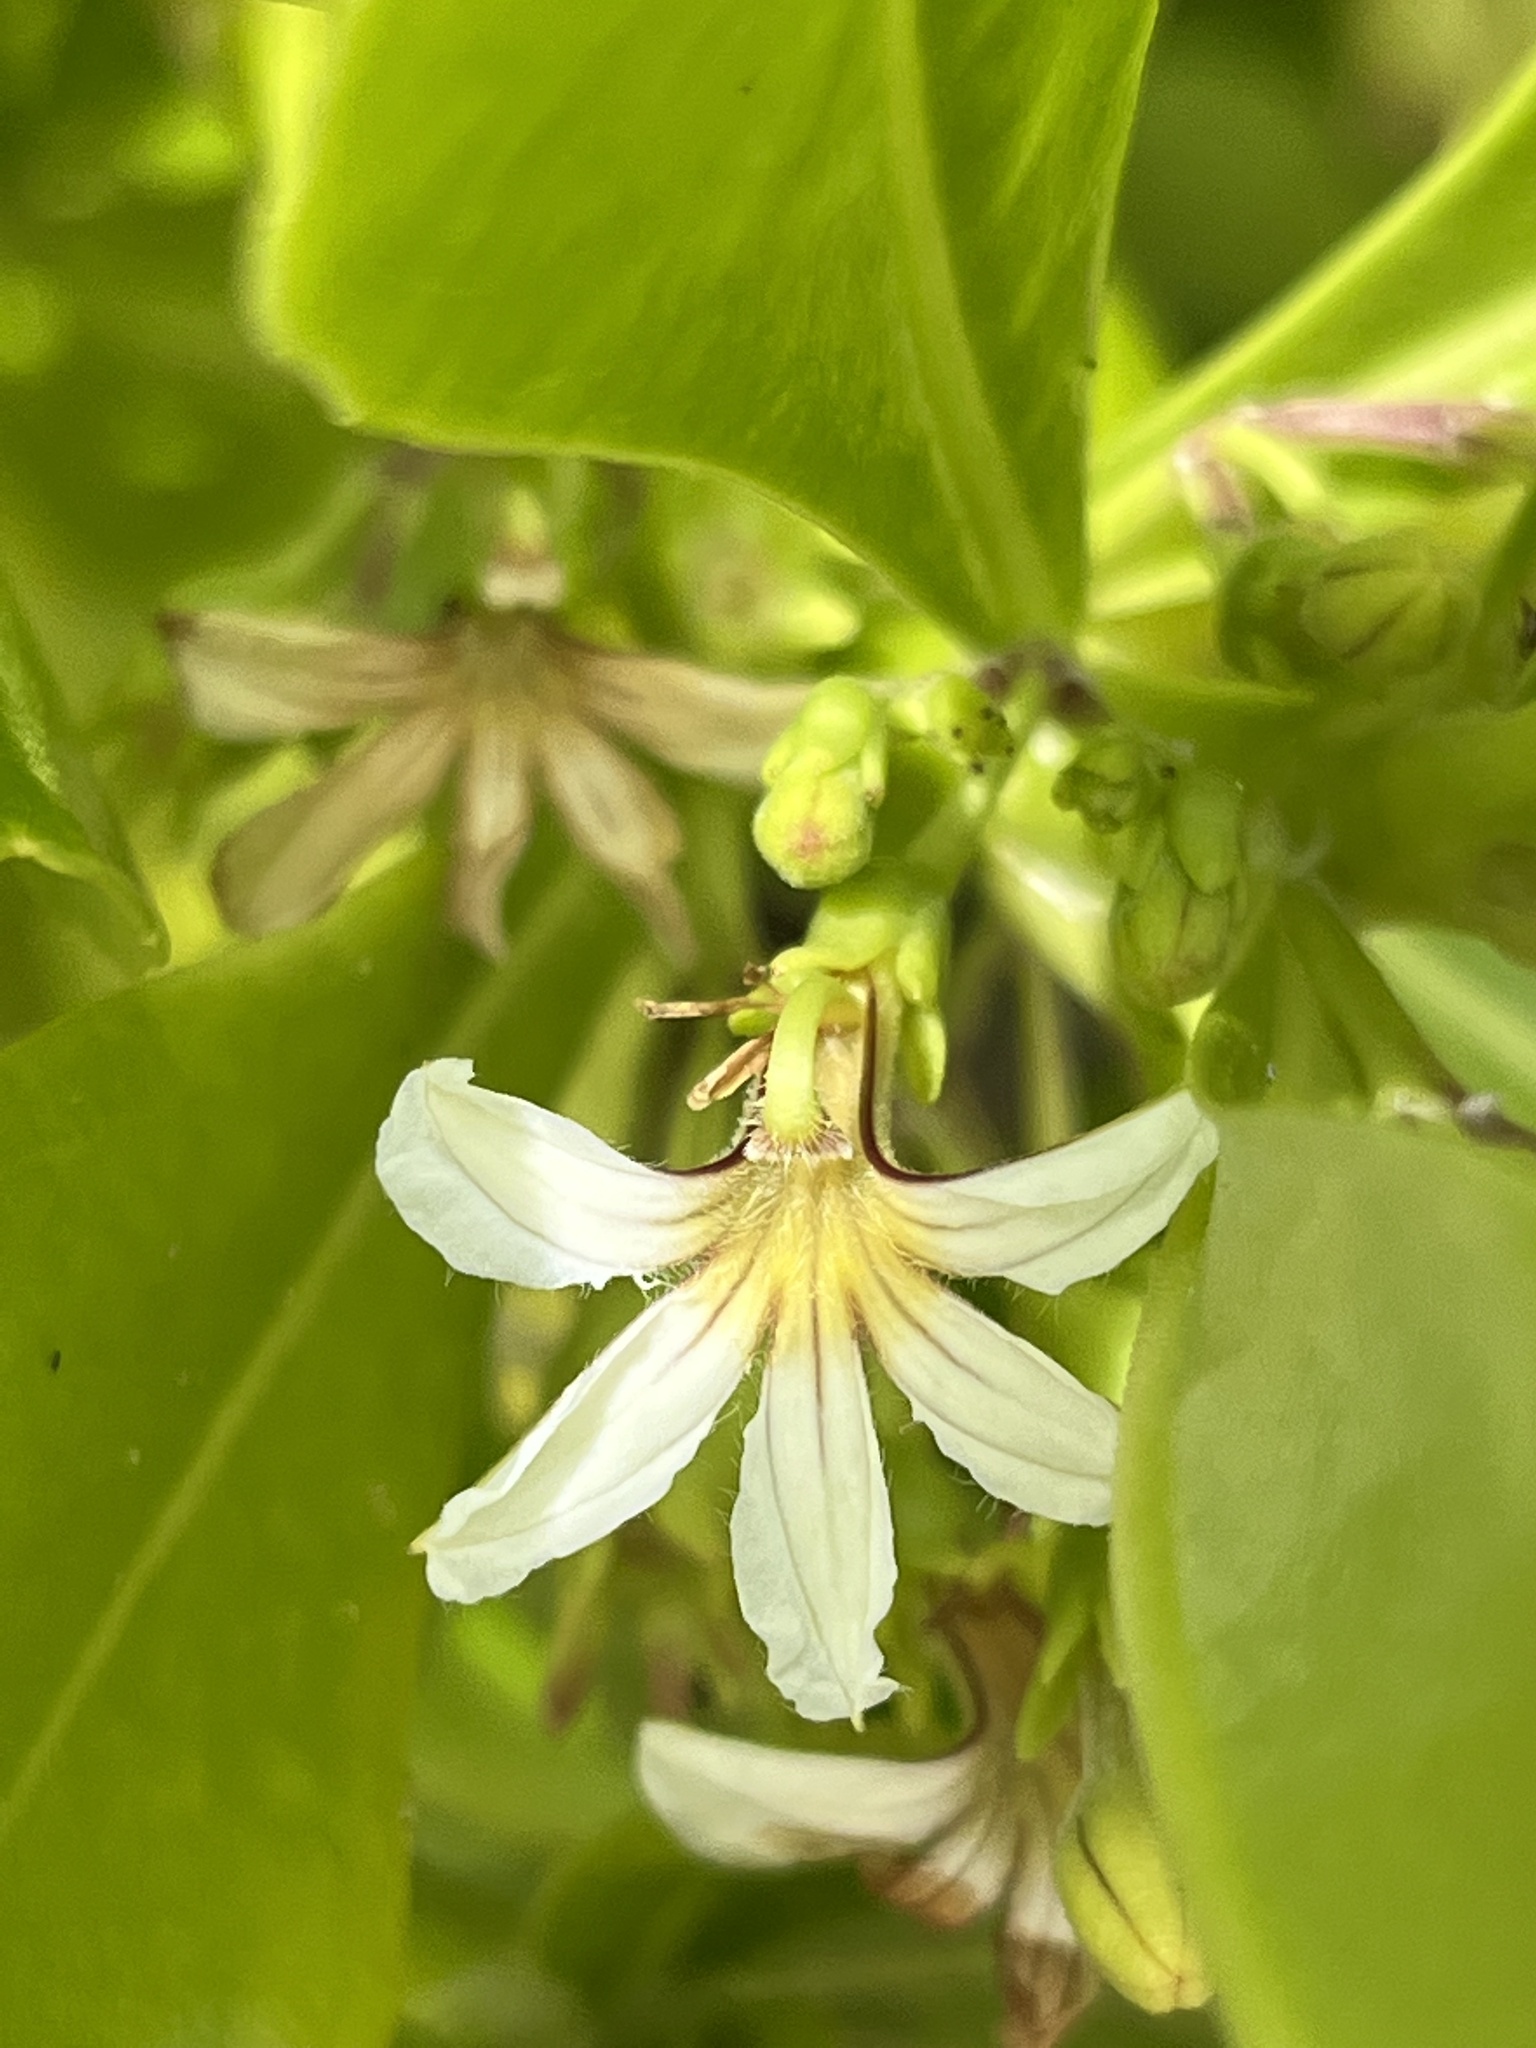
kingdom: Plantae
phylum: Tracheophyta
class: Magnoliopsida
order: Asterales
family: Goodeniaceae
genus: Scaevola
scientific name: Scaevola taccada
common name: Sea lettucetree
